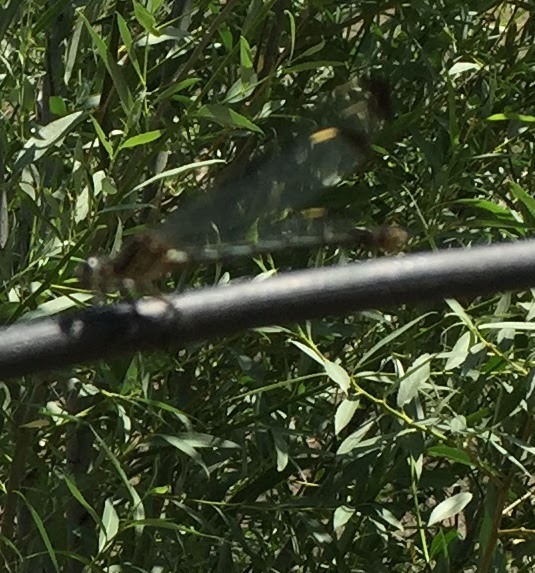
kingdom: Animalia
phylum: Arthropoda
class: Insecta
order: Odonata
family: Euphaeidae
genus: Epallage
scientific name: Epallage fatime
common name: Odalisque
